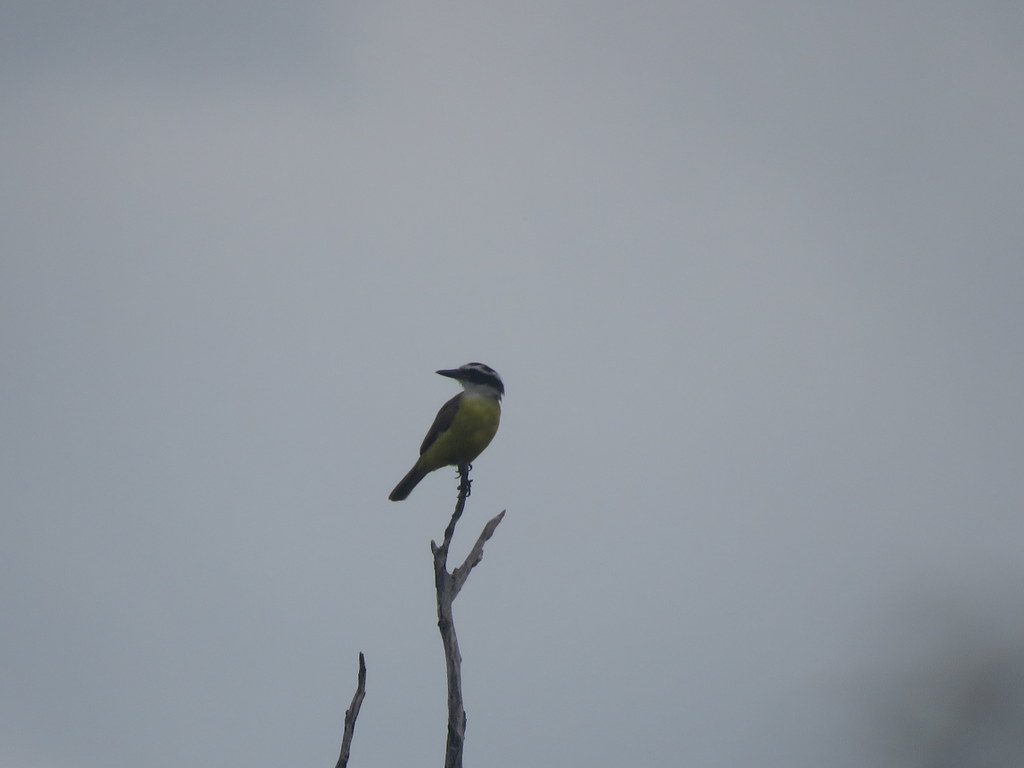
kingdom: Animalia
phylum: Chordata
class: Aves
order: Passeriformes
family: Tyrannidae
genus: Pitangus
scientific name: Pitangus sulphuratus
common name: Great kiskadee
